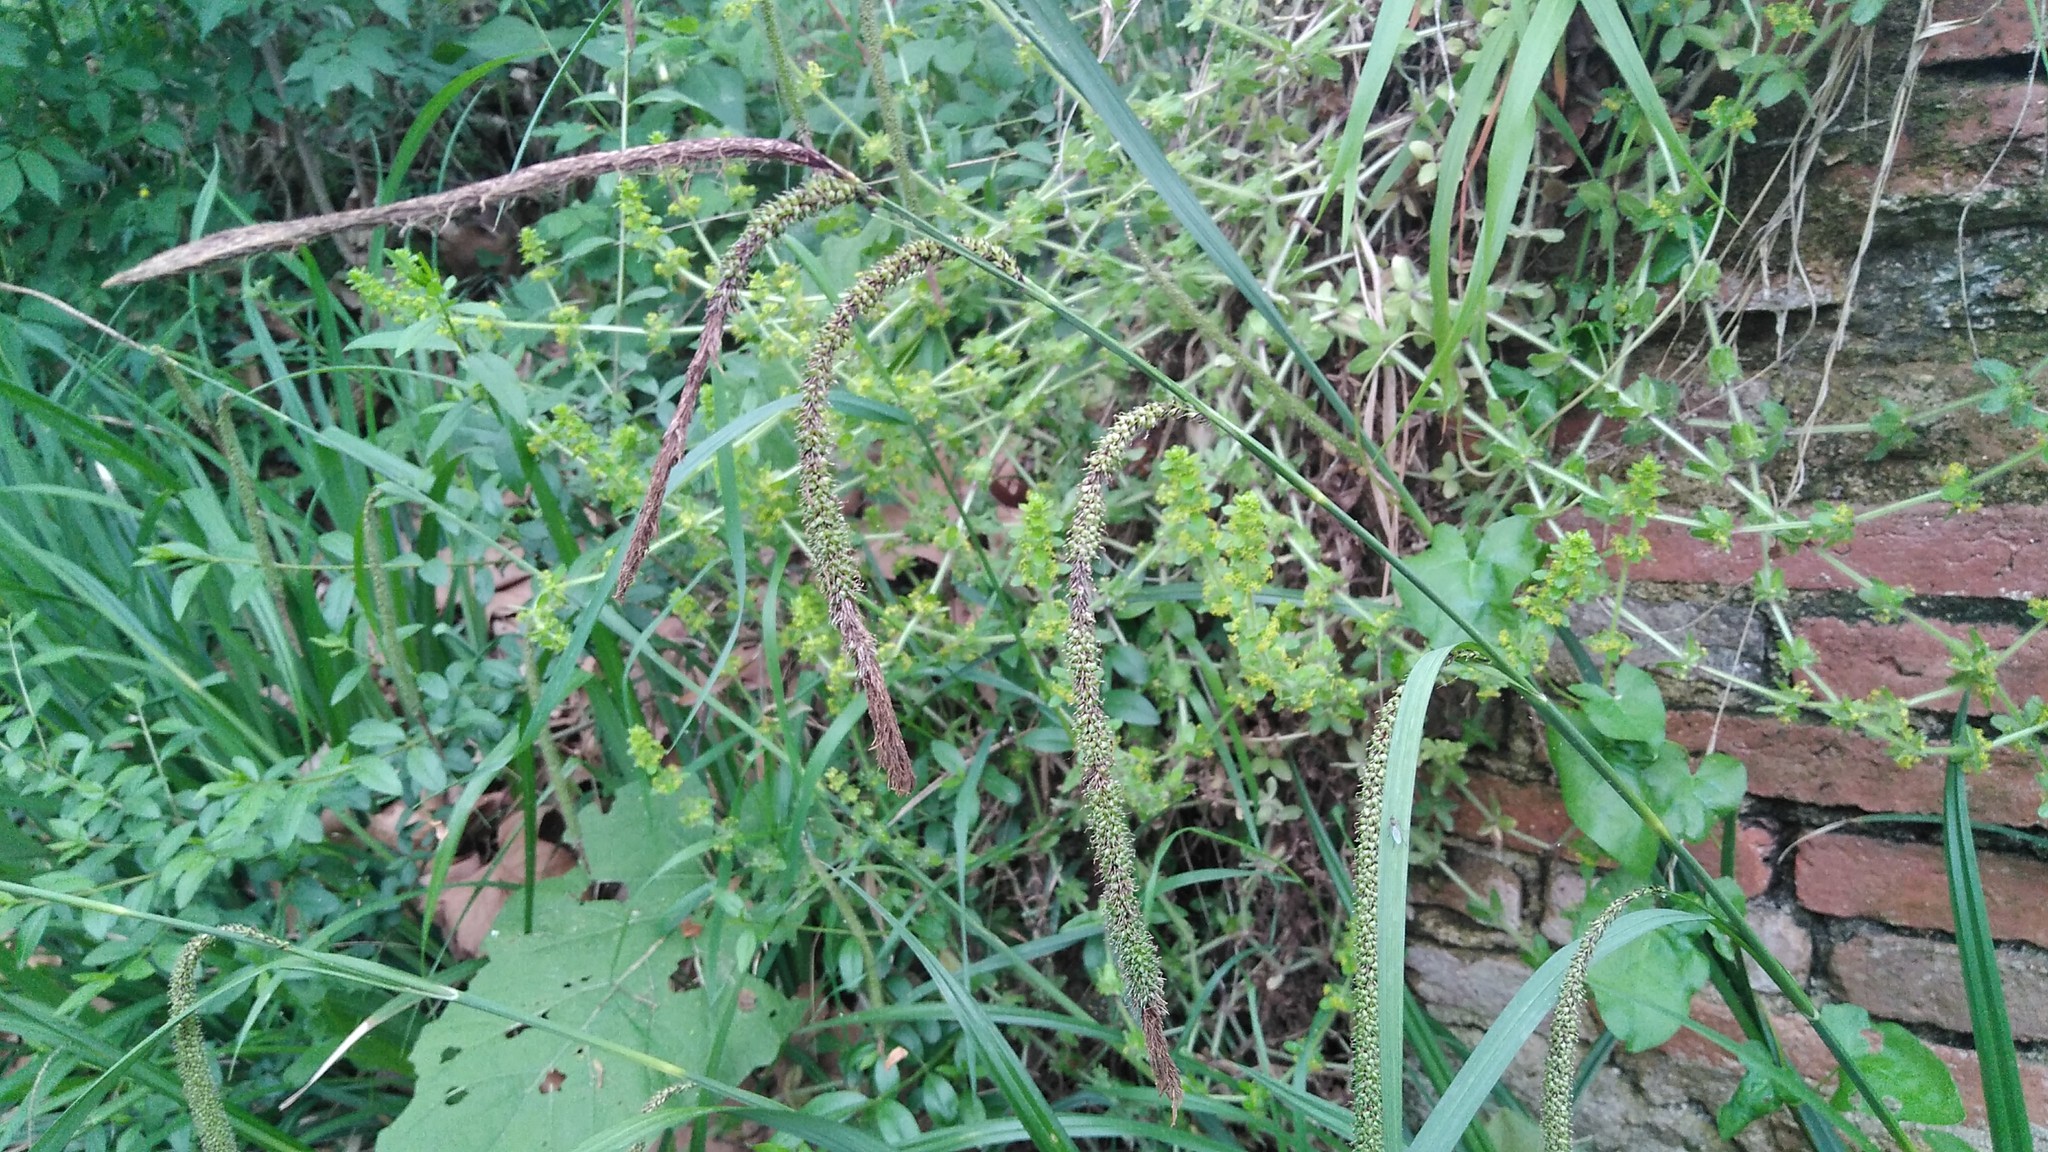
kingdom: Plantae
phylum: Tracheophyta
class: Liliopsida
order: Poales
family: Cyperaceae
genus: Carex
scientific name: Carex pendula
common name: Pendulous sedge
